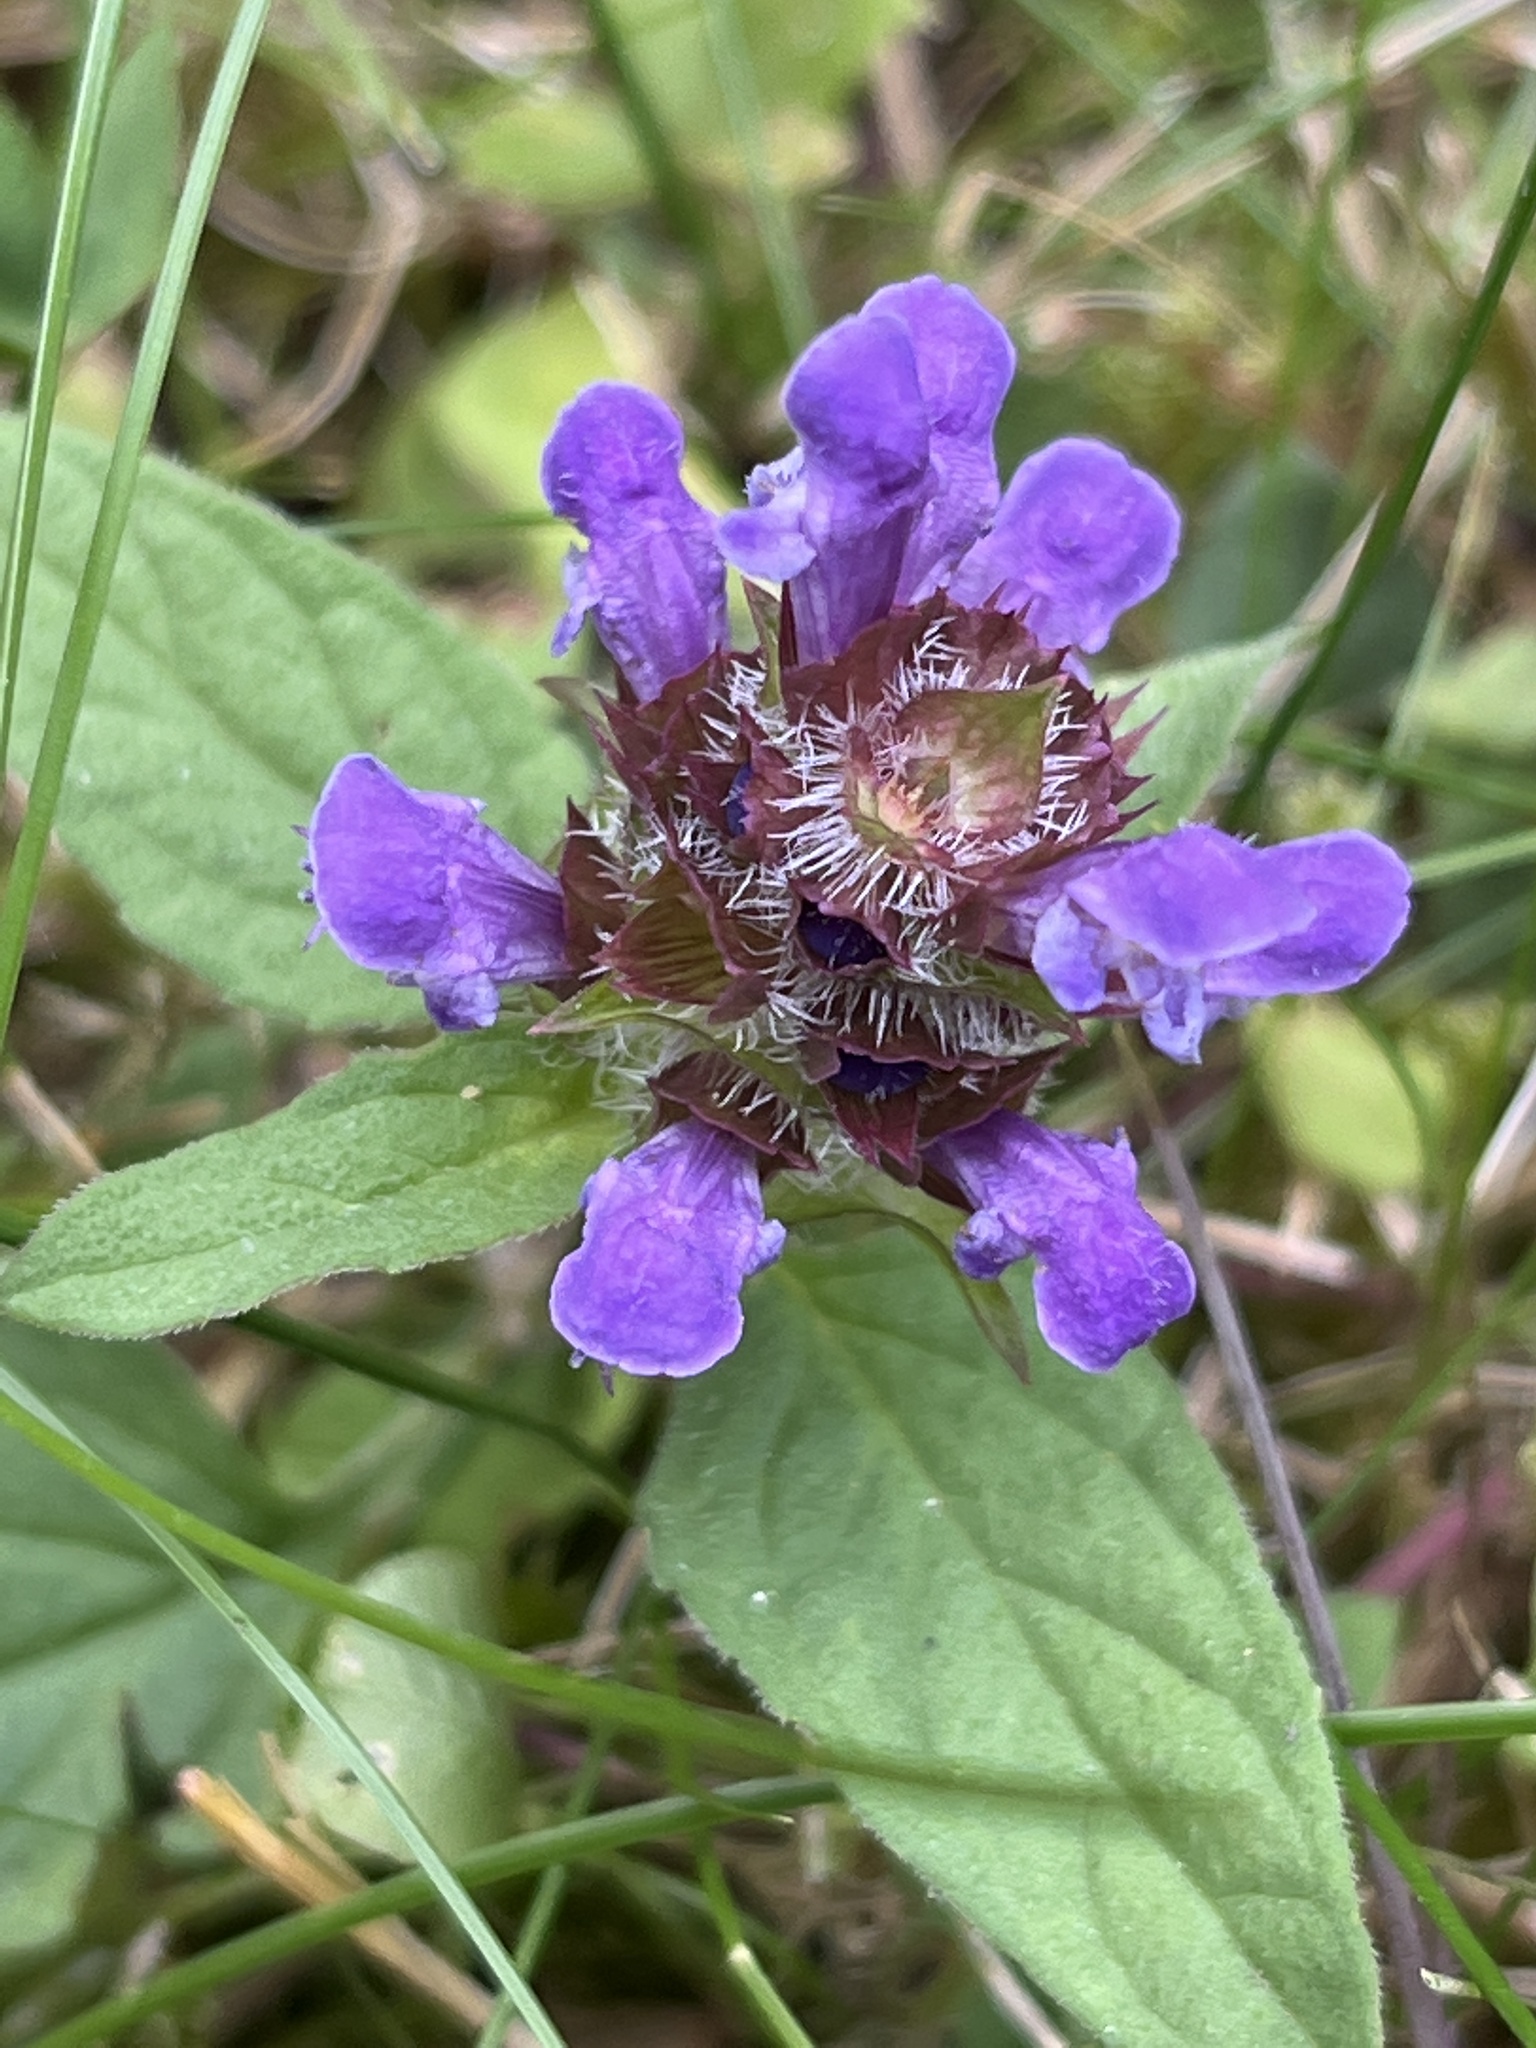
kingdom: Plantae
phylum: Tracheophyta
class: Magnoliopsida
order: Lamiales
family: Lamiaceae
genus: Prunella
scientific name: Prunella vulgaris
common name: Heal-all
